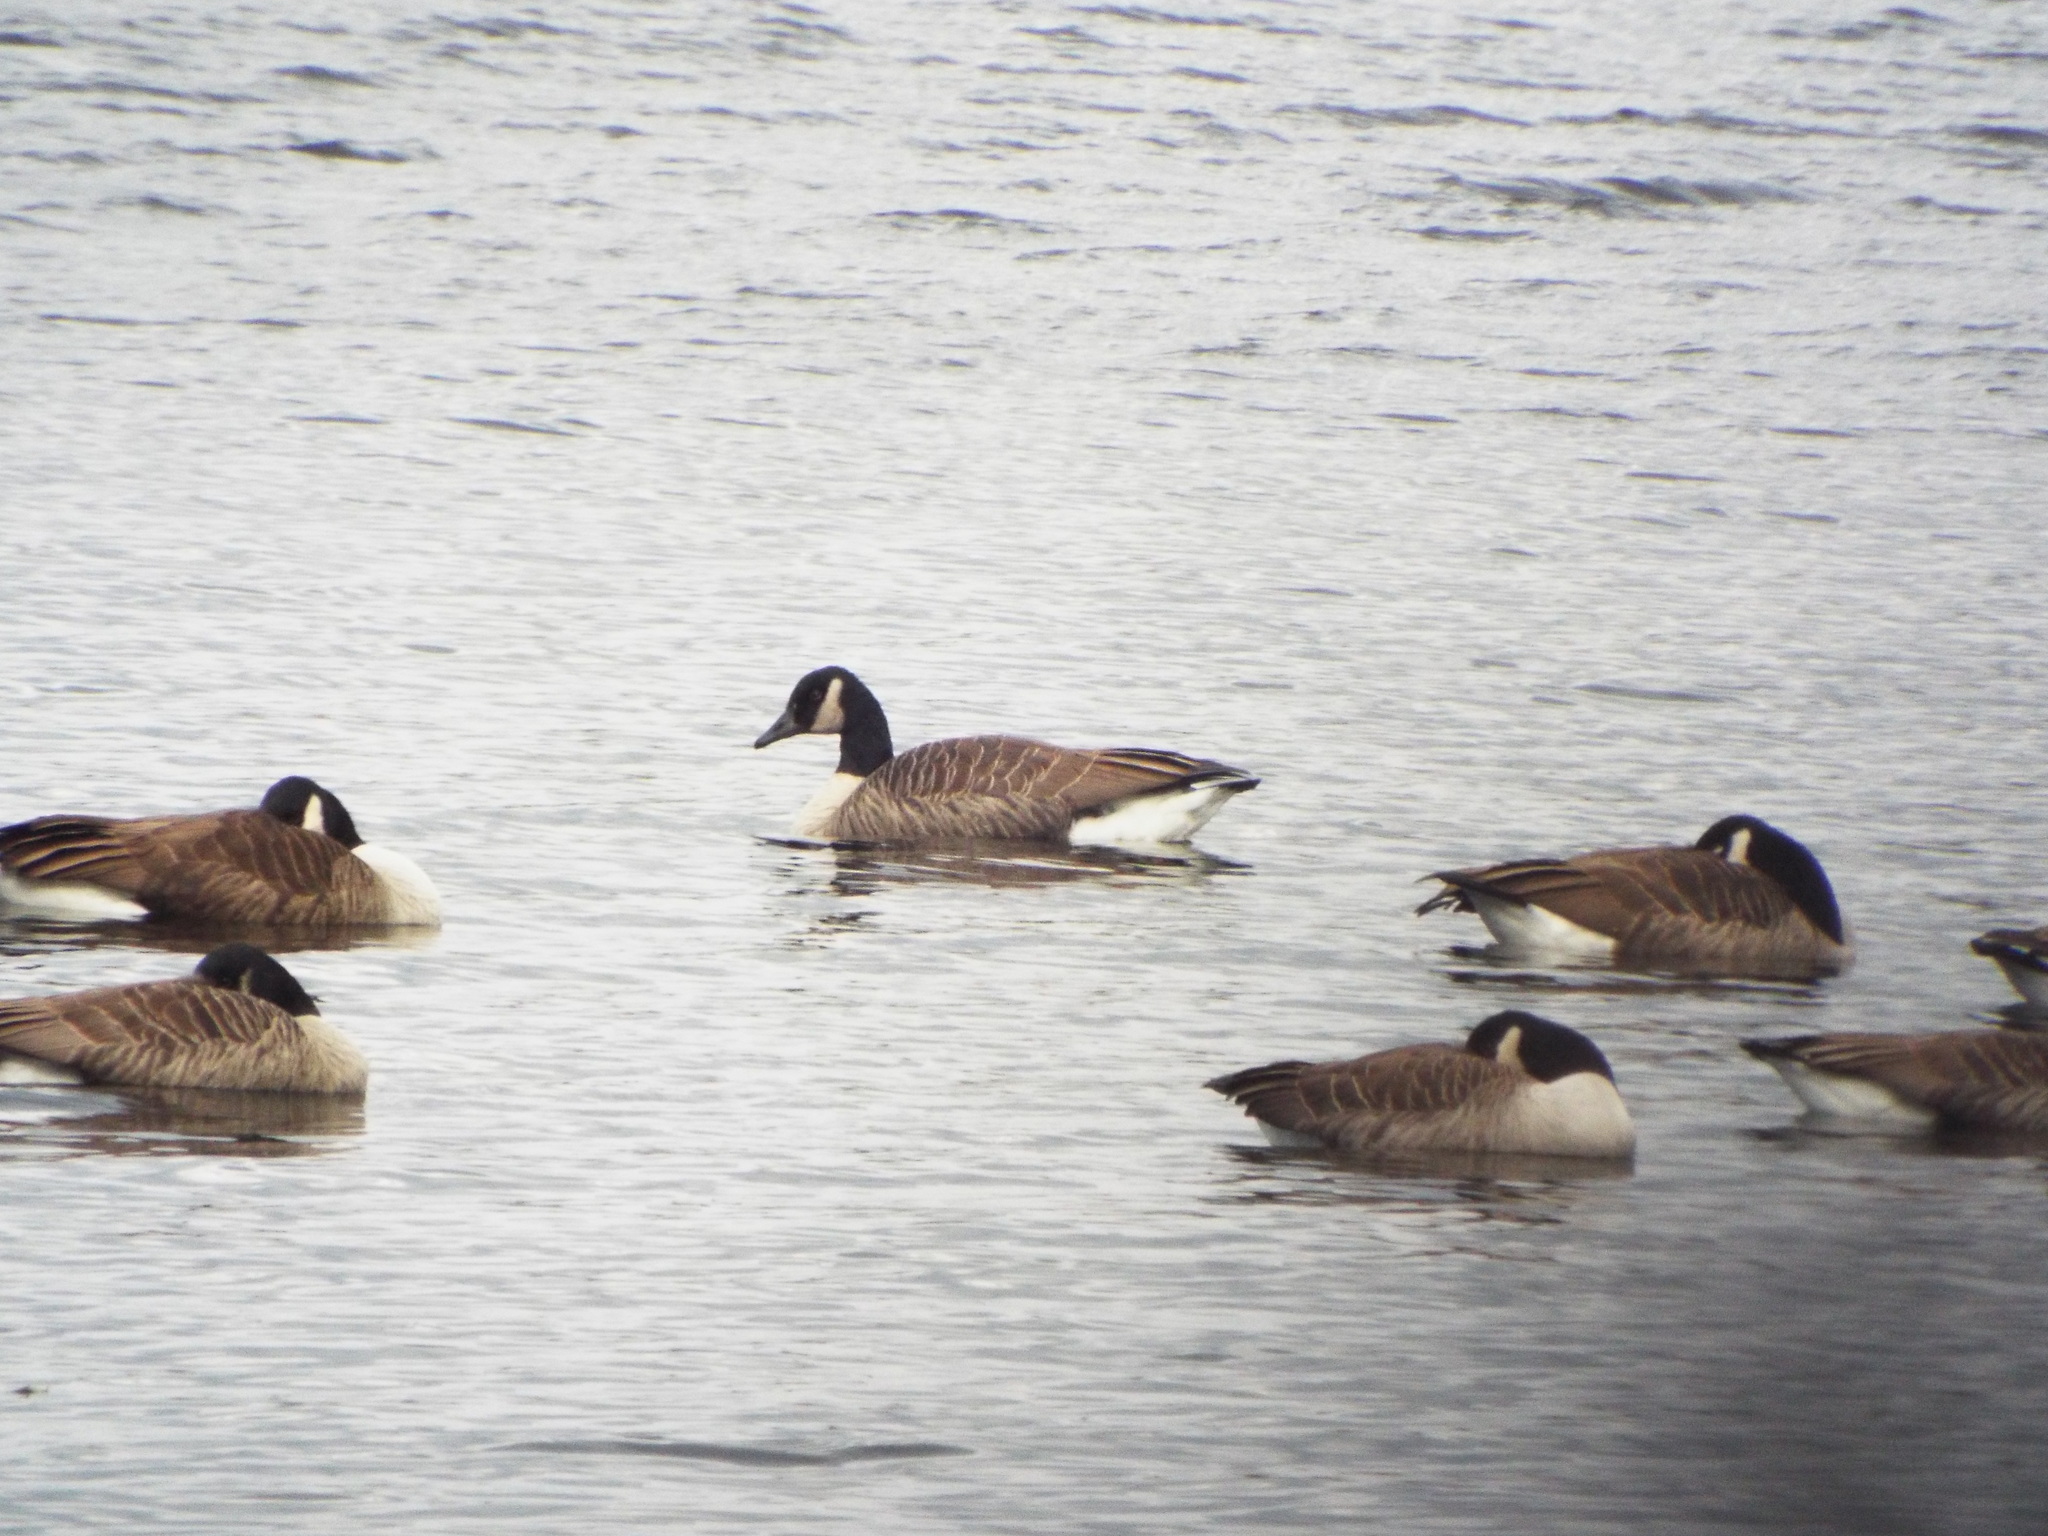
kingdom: Animalia
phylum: Chordata
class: Aves
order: Anseriformes
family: Anatidae
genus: Branta
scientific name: Branta canadensis
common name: Canada goose
